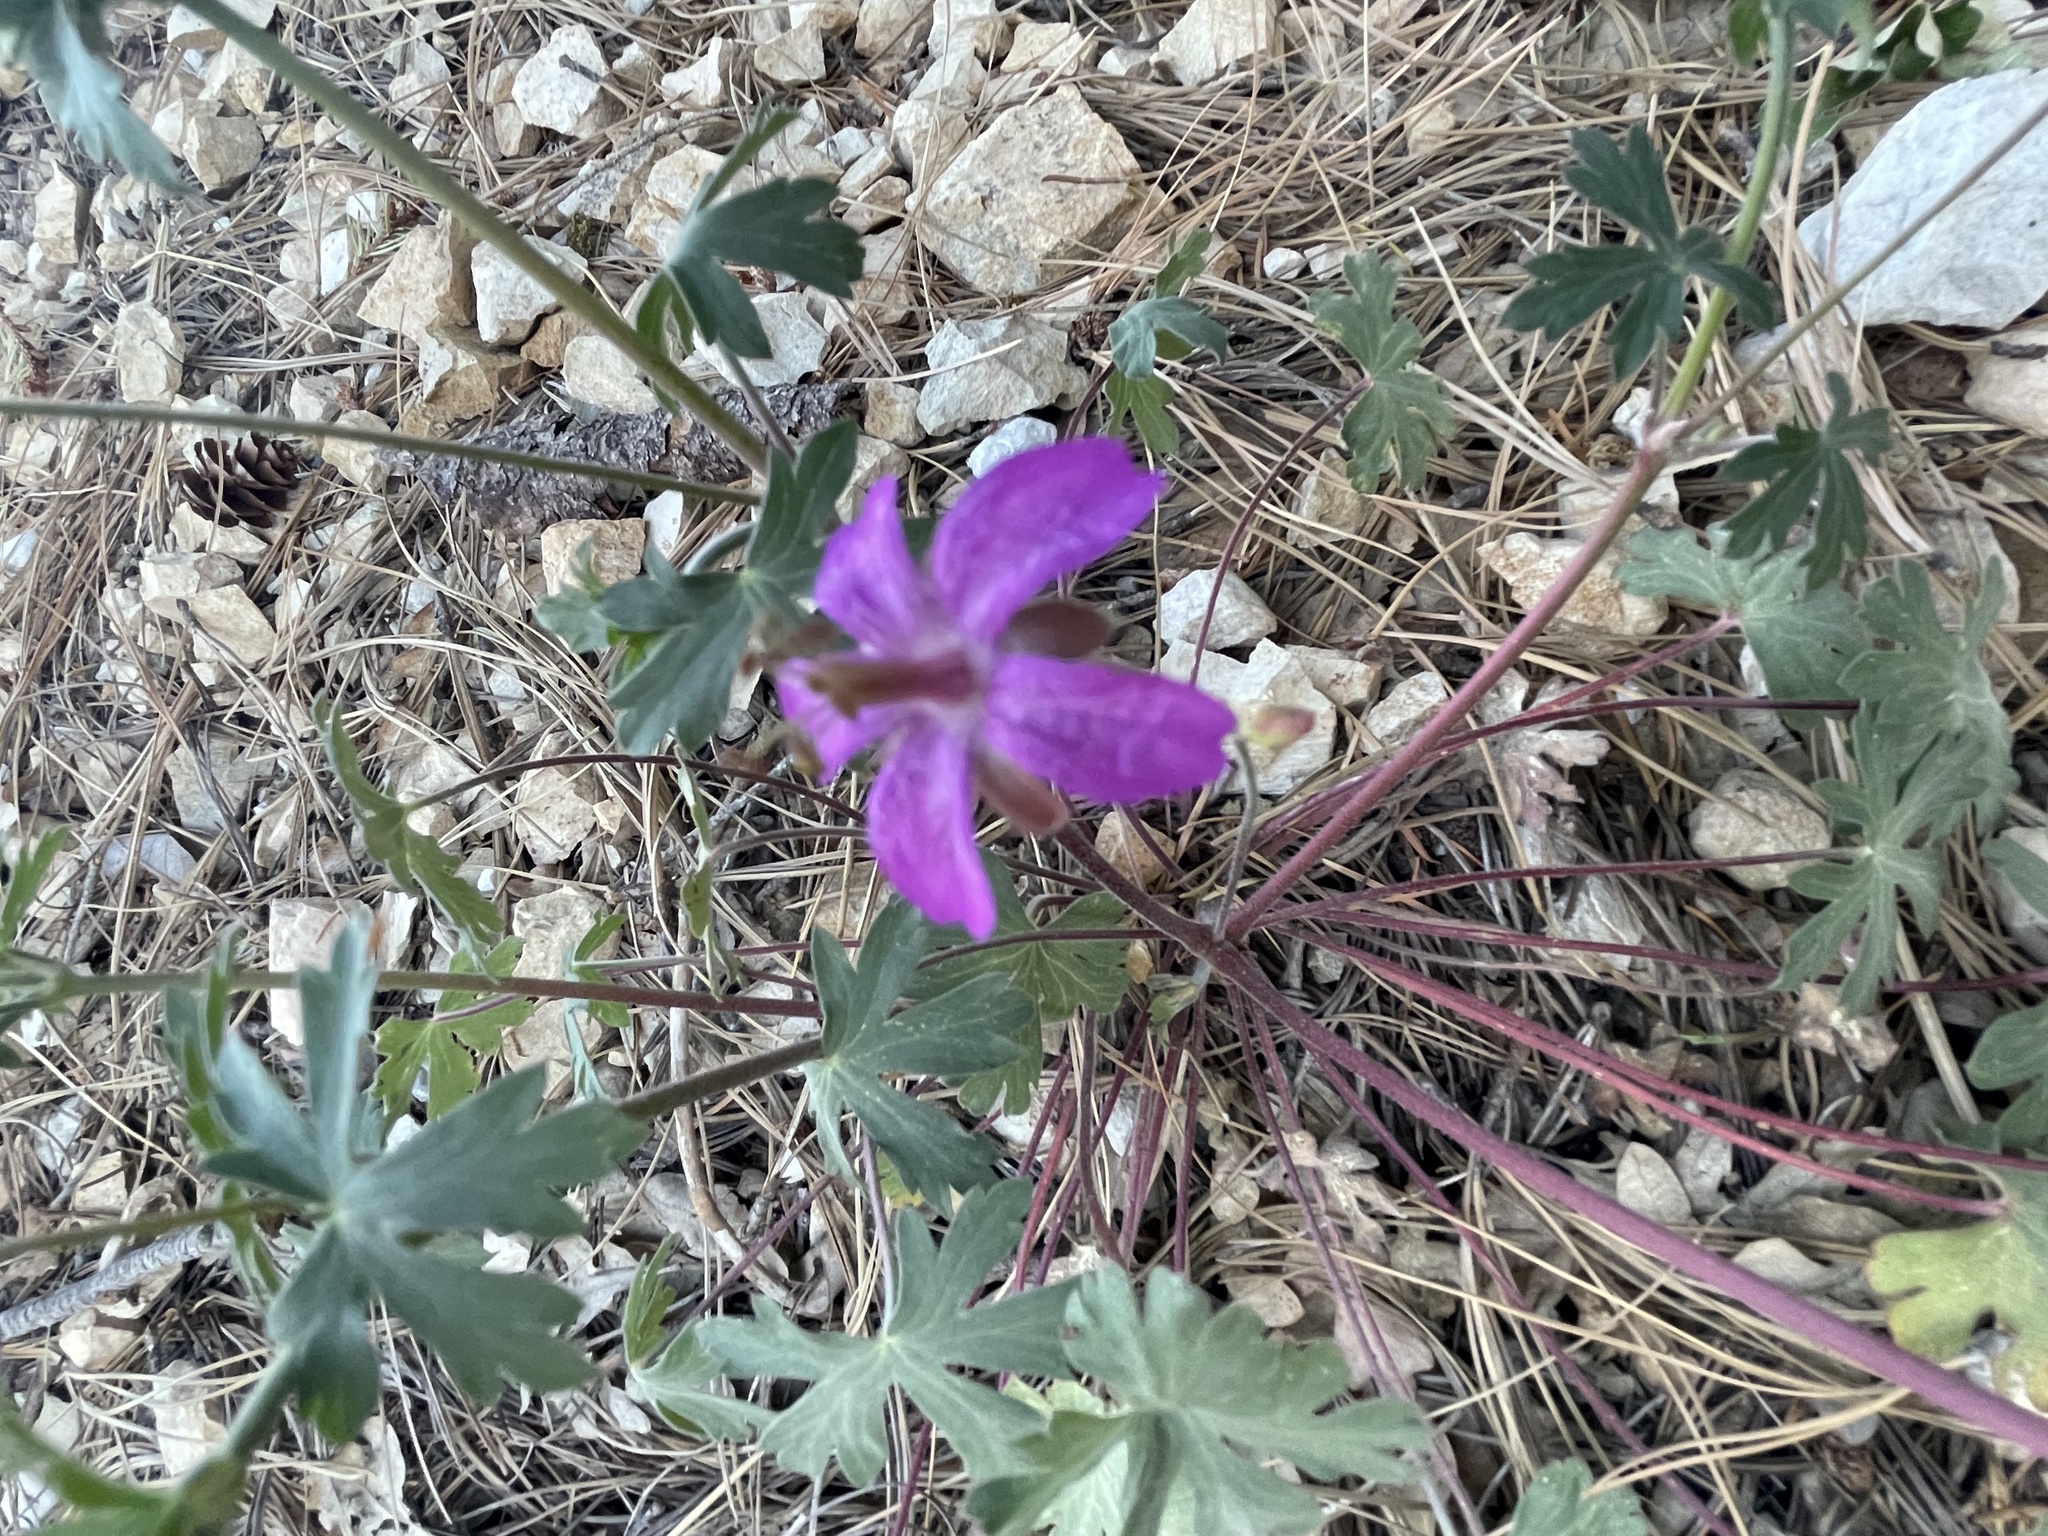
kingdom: Plantae
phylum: Tracheophyta
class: Magnoliopsida
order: Geraniales
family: Geraniaceae
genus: Geranium
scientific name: Geranium caespitosum
